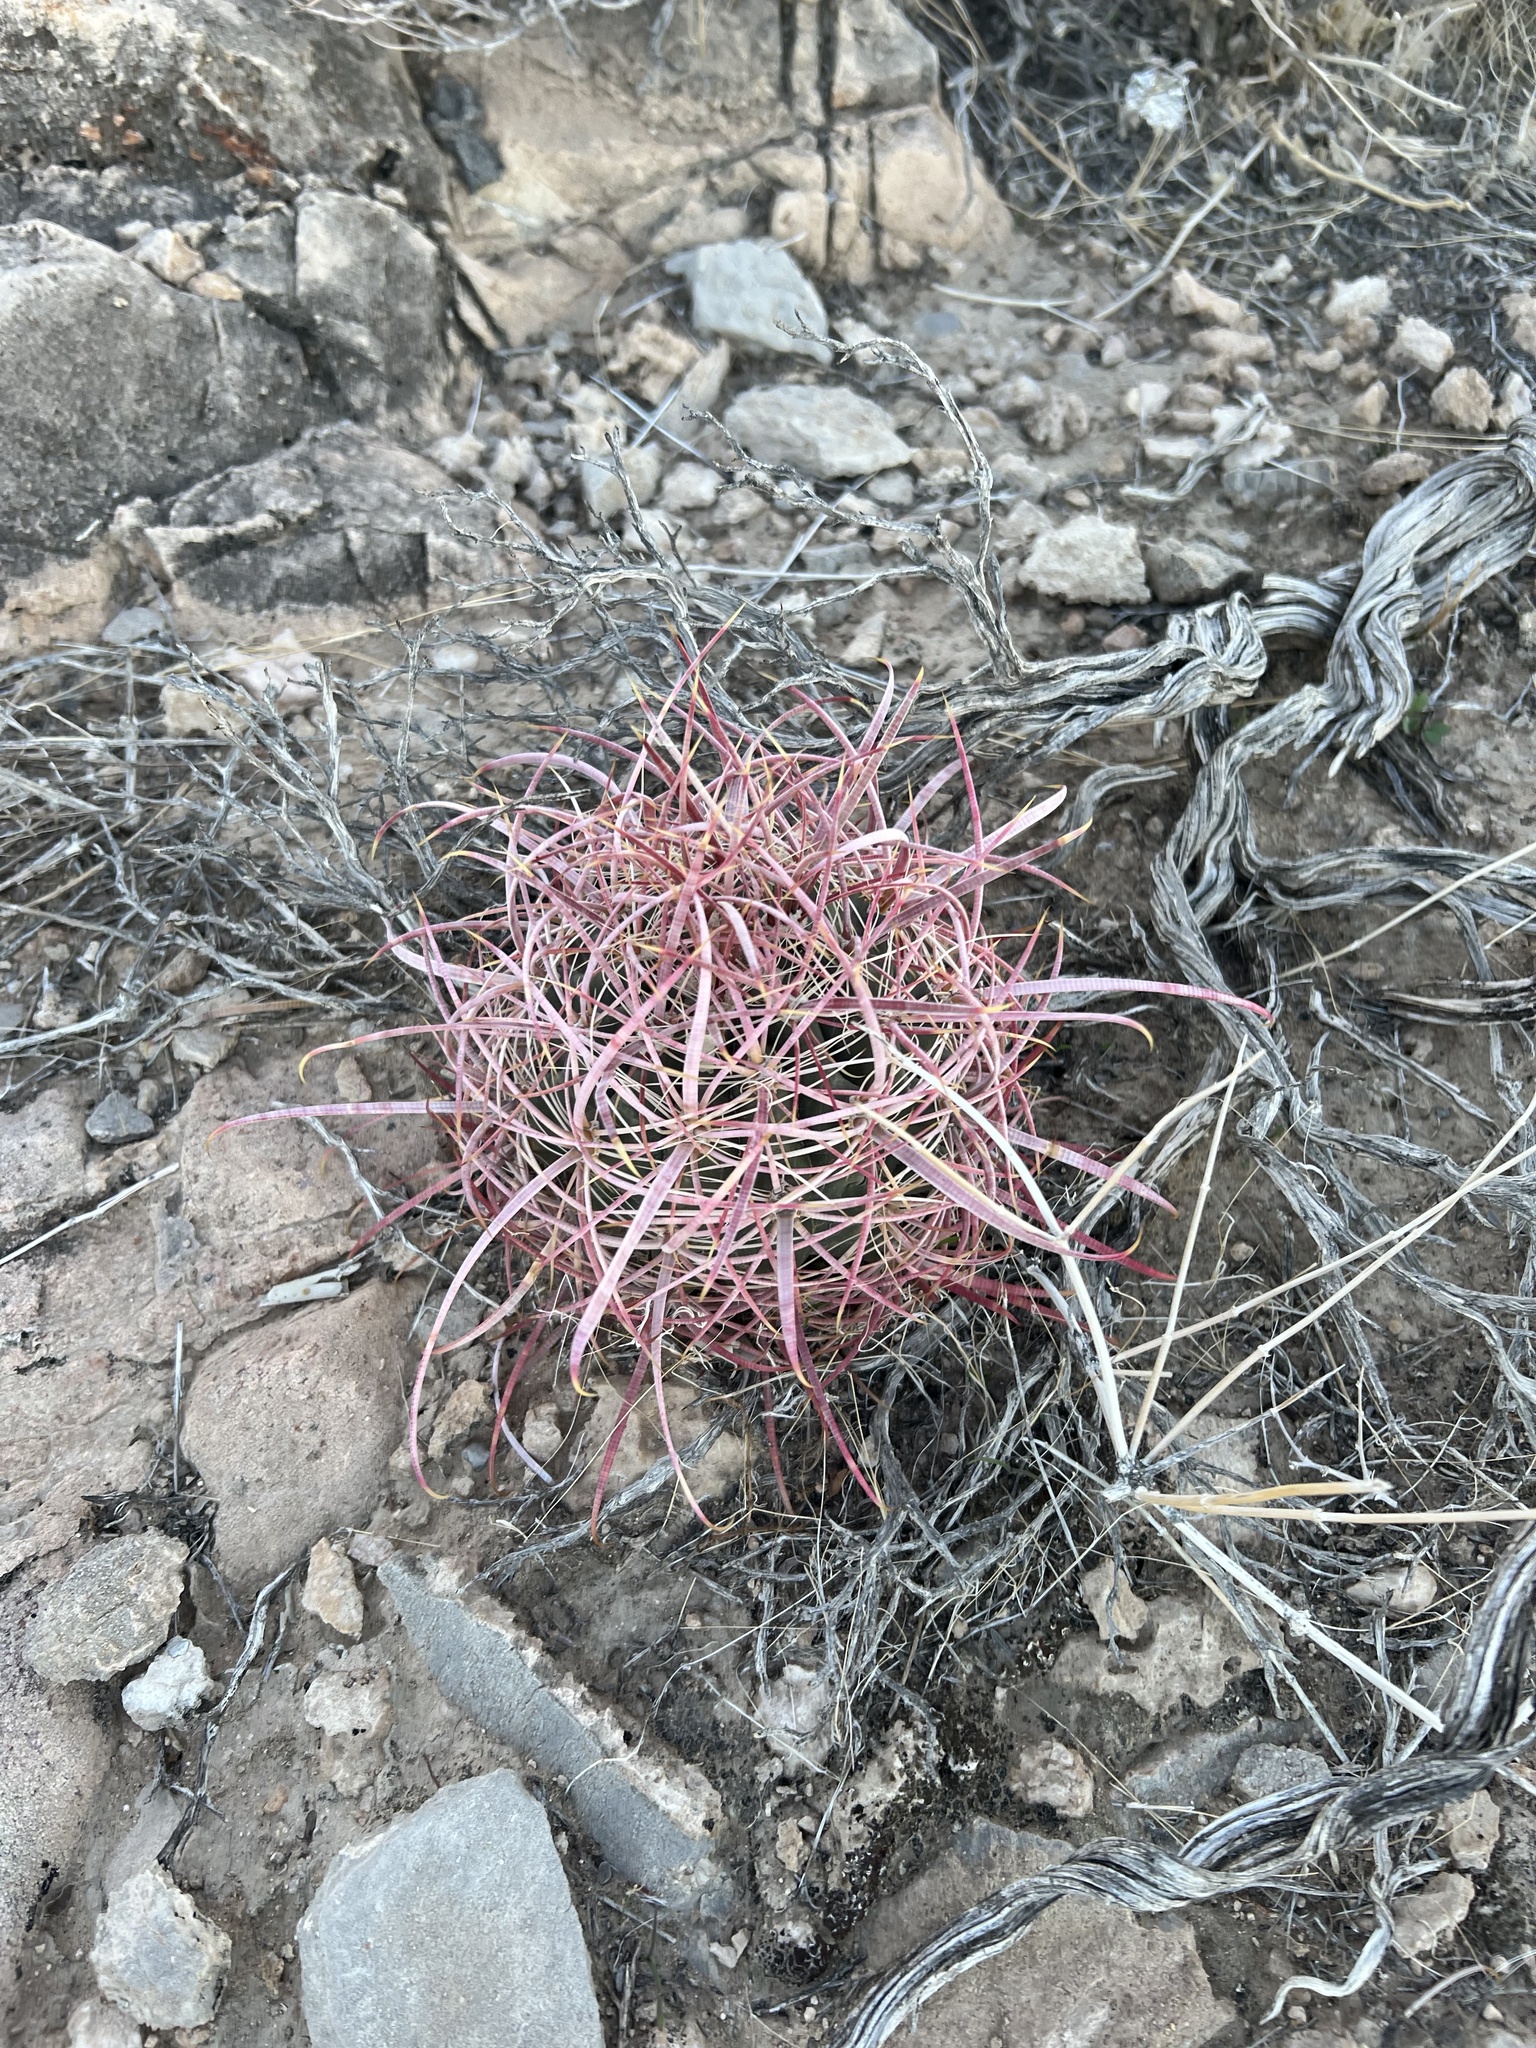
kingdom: Plantae
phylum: Tracheophyta
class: Magnoliopsida
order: Caryophyllales
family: Cactaceae
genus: Ferocactus
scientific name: Ferocactus cylindraceus
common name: California barrel cactus
